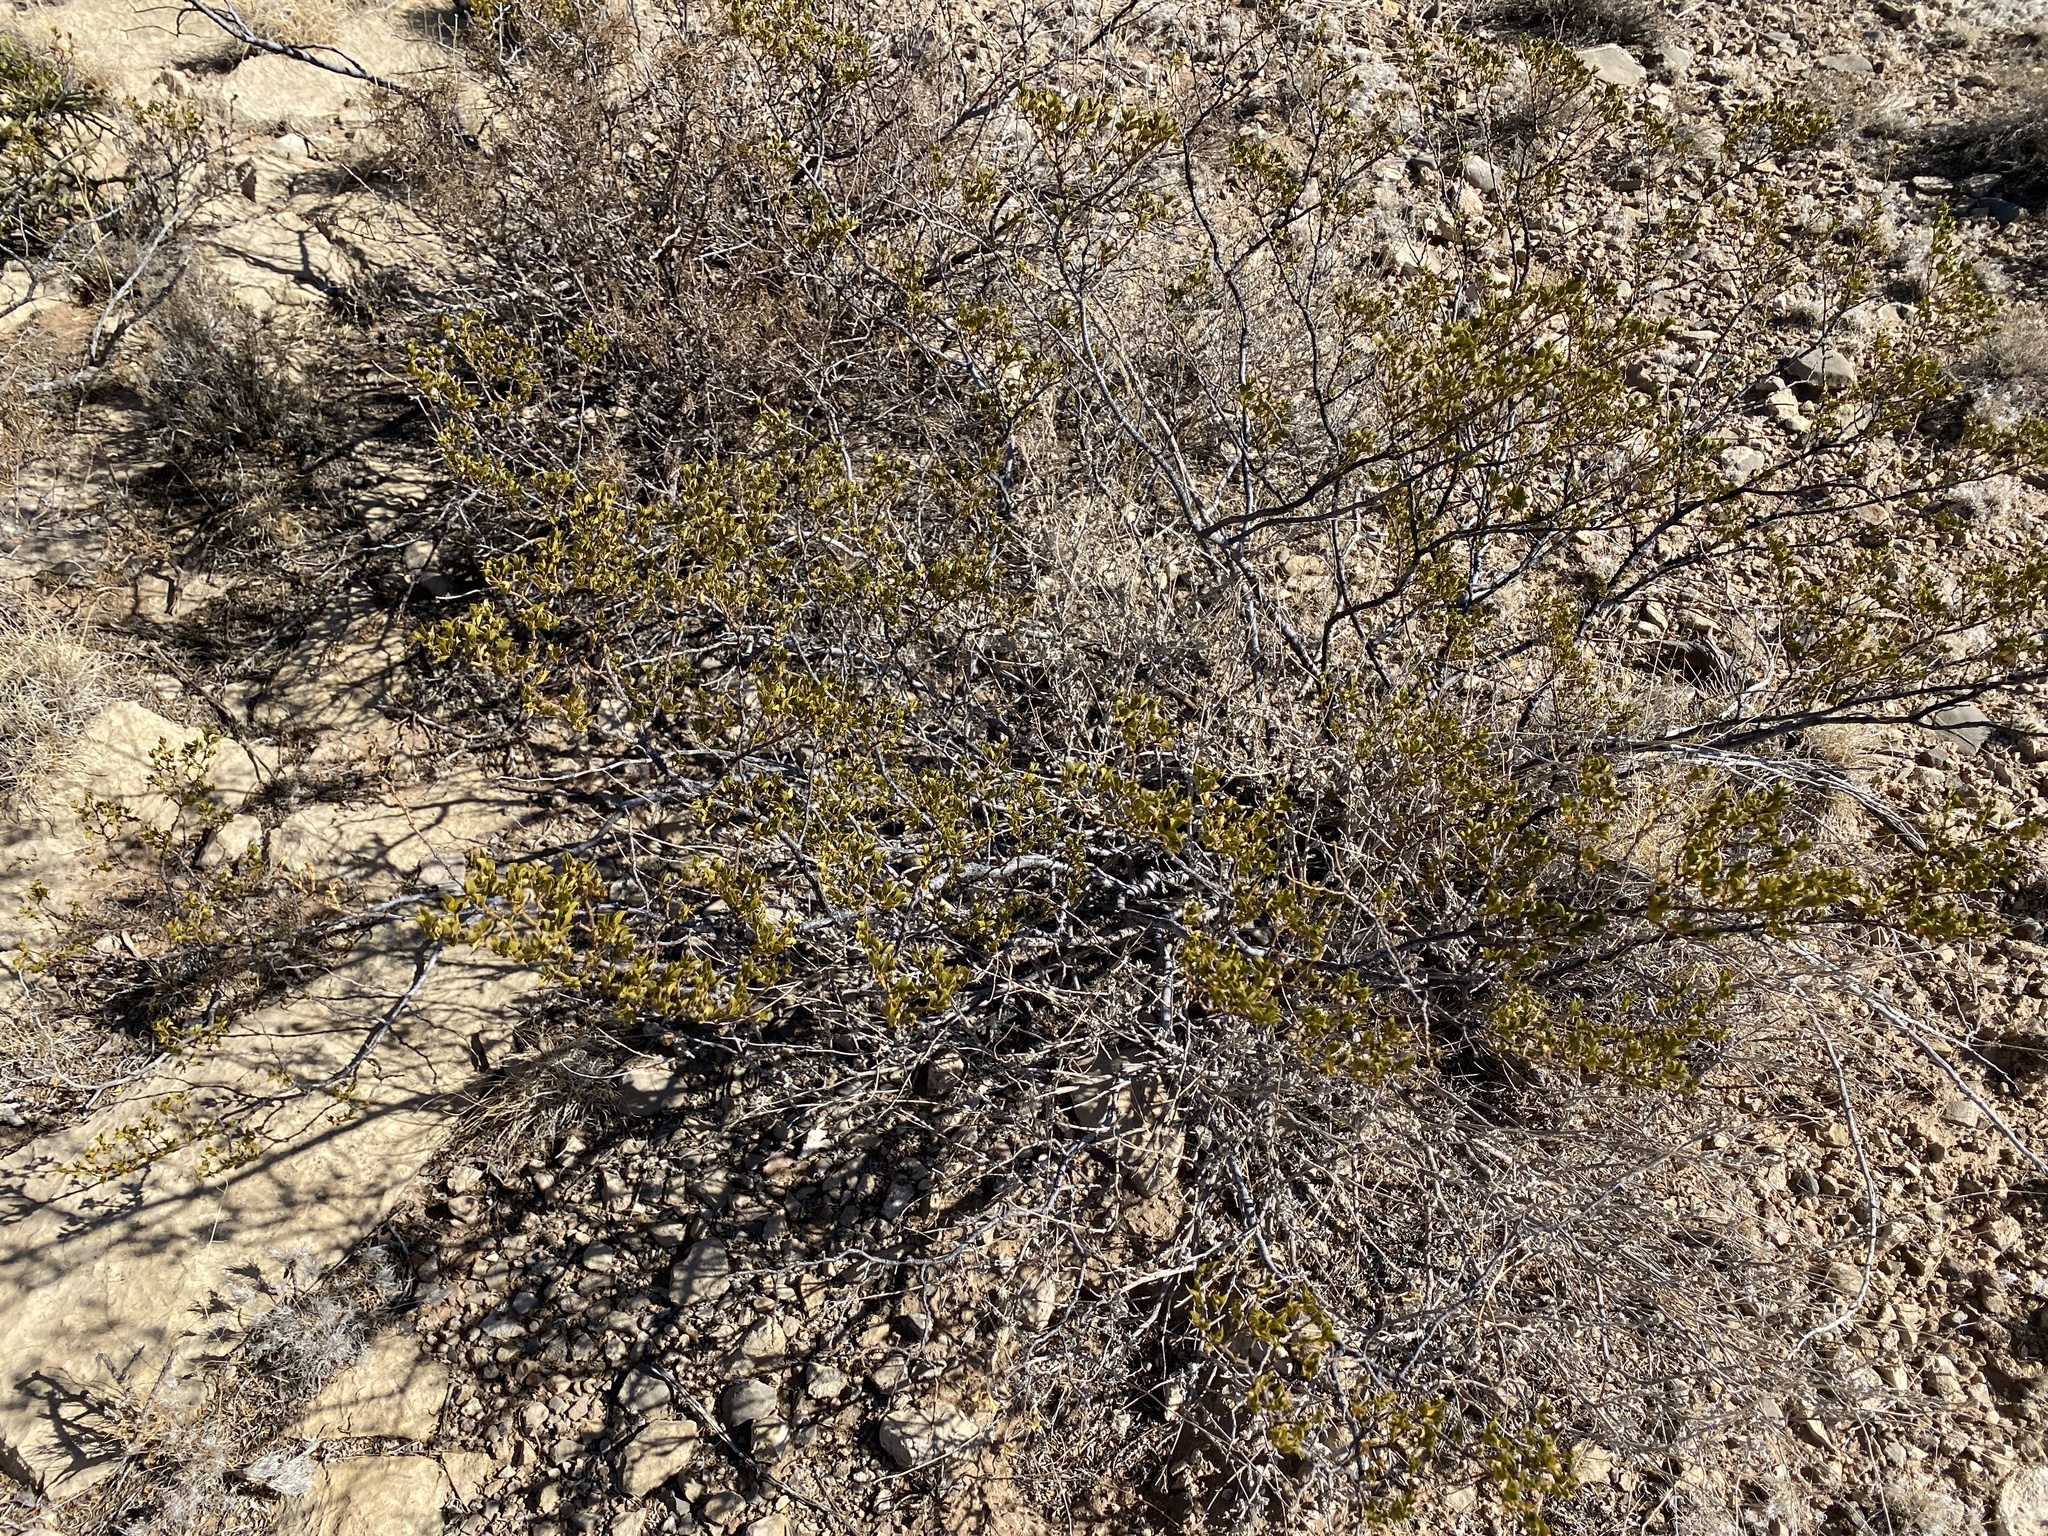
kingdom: Plantae
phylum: Tracheophyta
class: Magnoliopsida
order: Zygophyllales
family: Zygophyllaceae
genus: Larrea
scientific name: Larrea tridentata
